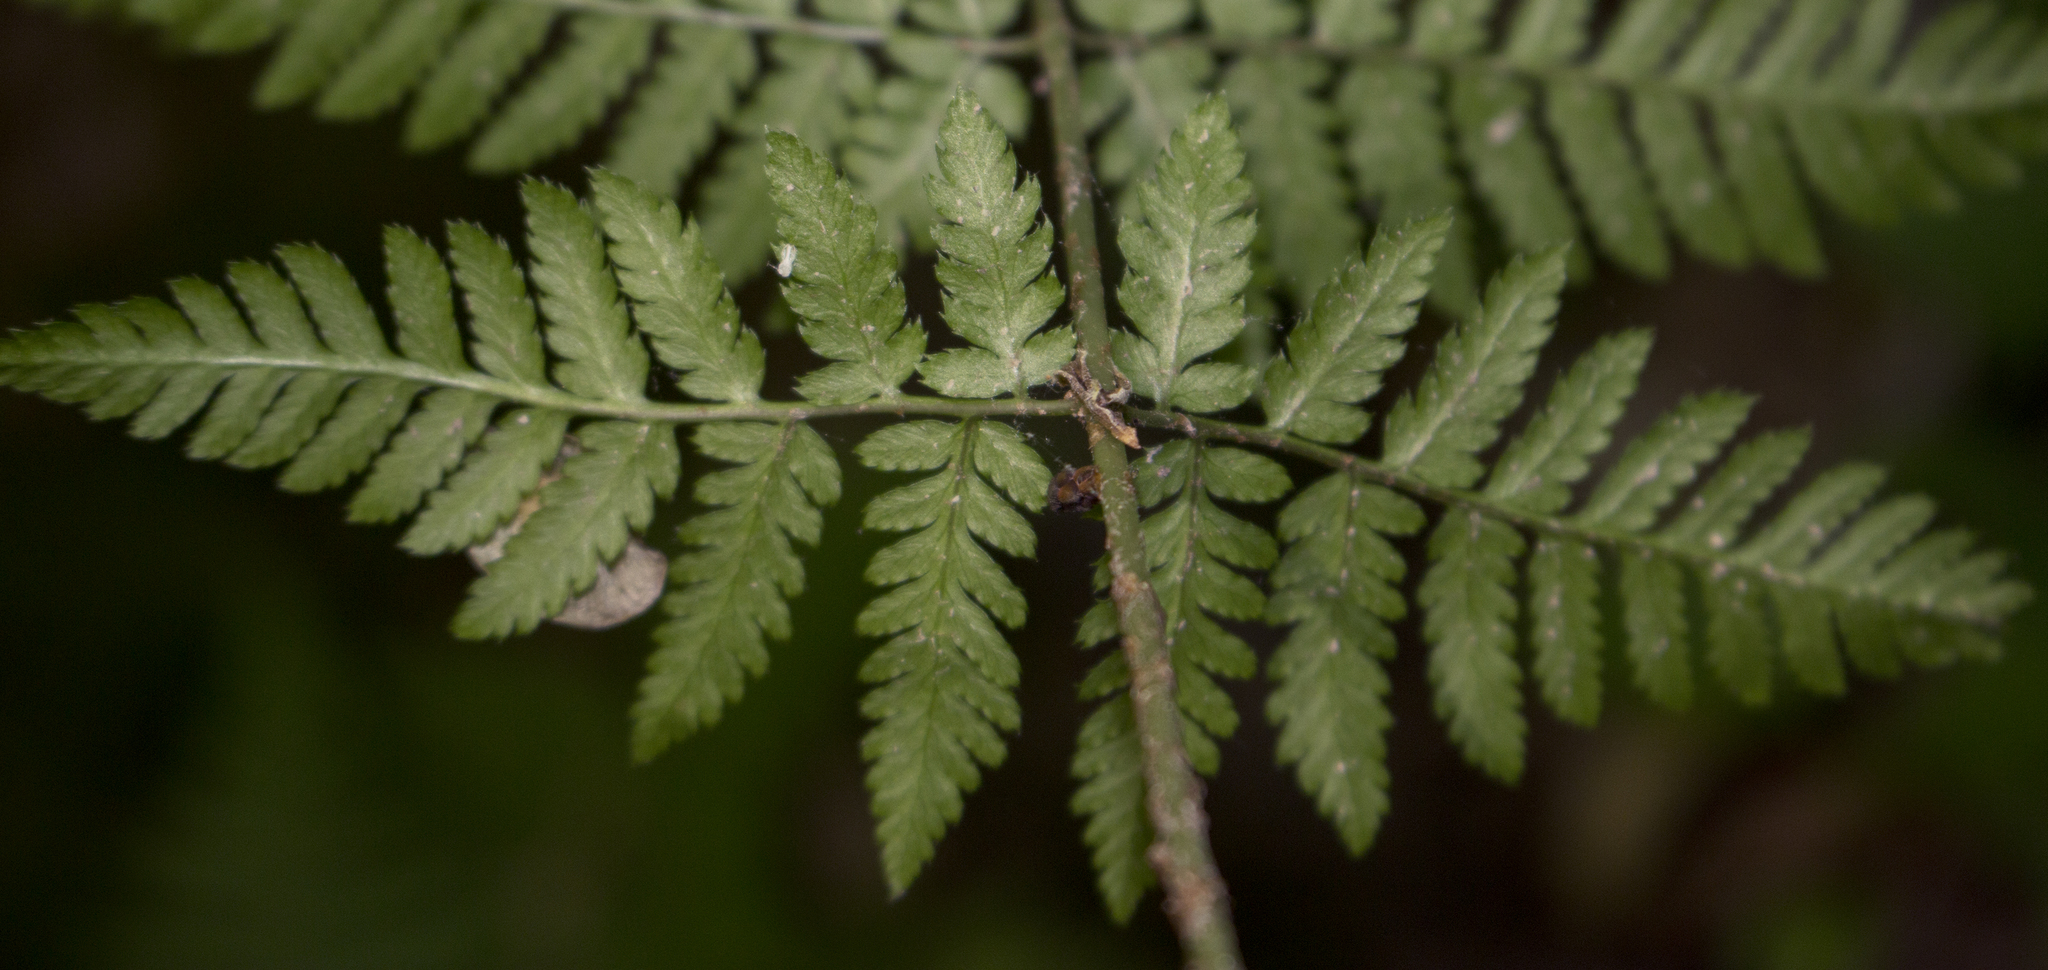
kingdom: Plantae
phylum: Tracheophyta
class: Polypodiopsida
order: Polypodiales
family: Dryopteridaceae
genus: Dryopteris
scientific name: Dryopteris carthusiana
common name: Narrow buckler-fern
